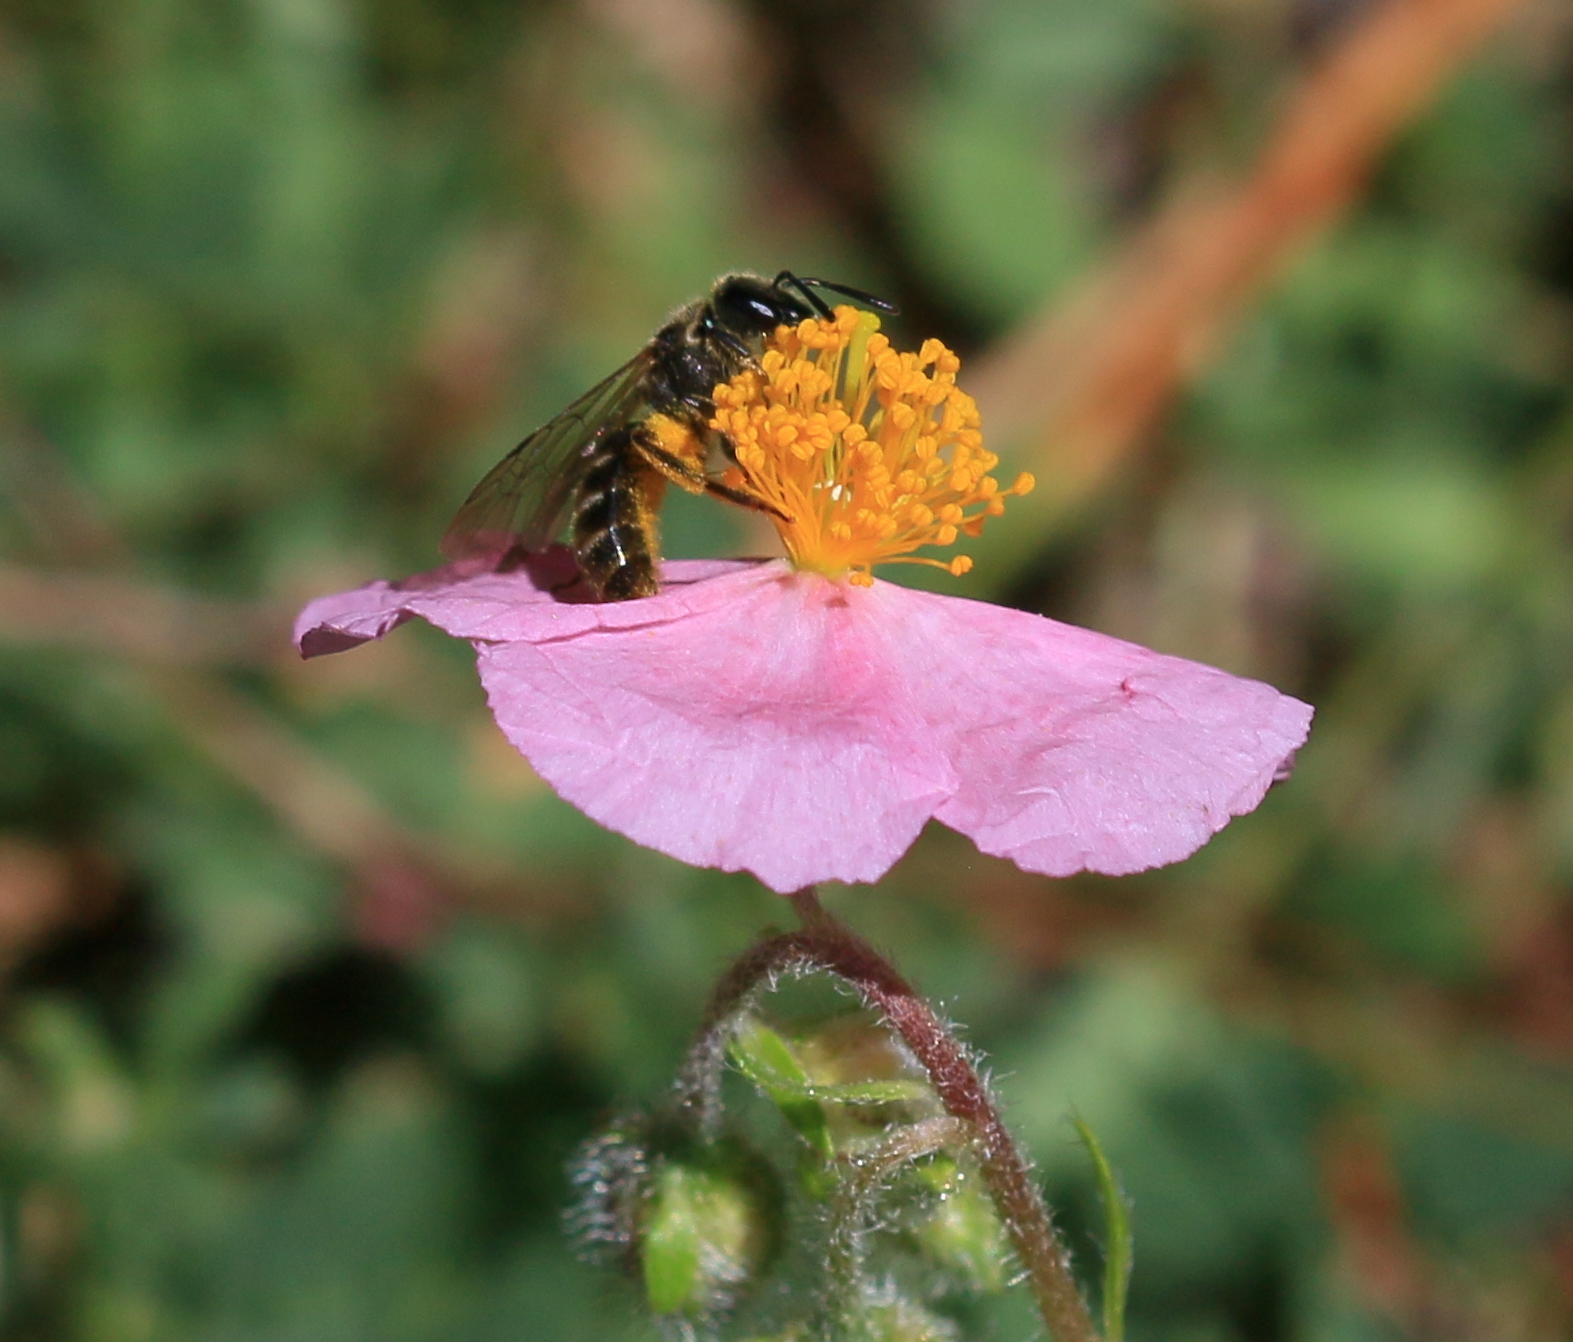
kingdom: Plantae
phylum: Tracheophyta
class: Magnoliopsida
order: Malvales
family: Cistaceae
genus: Helianthemum
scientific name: Helianthemum nummularium
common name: Common rock-rose
